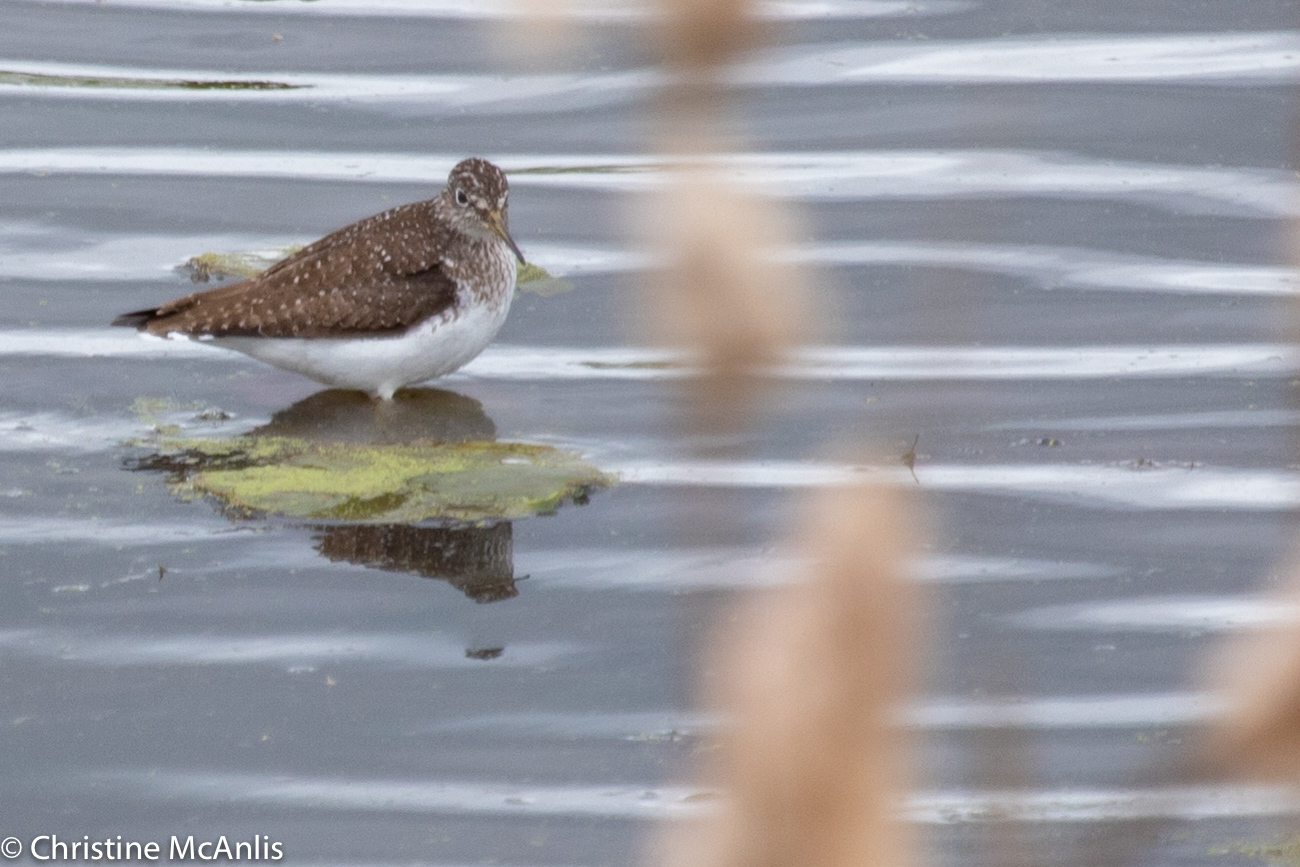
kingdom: Animalia
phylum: Chordata
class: Aves
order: Charadriiformes
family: Scolopacidae
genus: Tringa
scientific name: Tringa solitaria
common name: Solitary sandpiper
